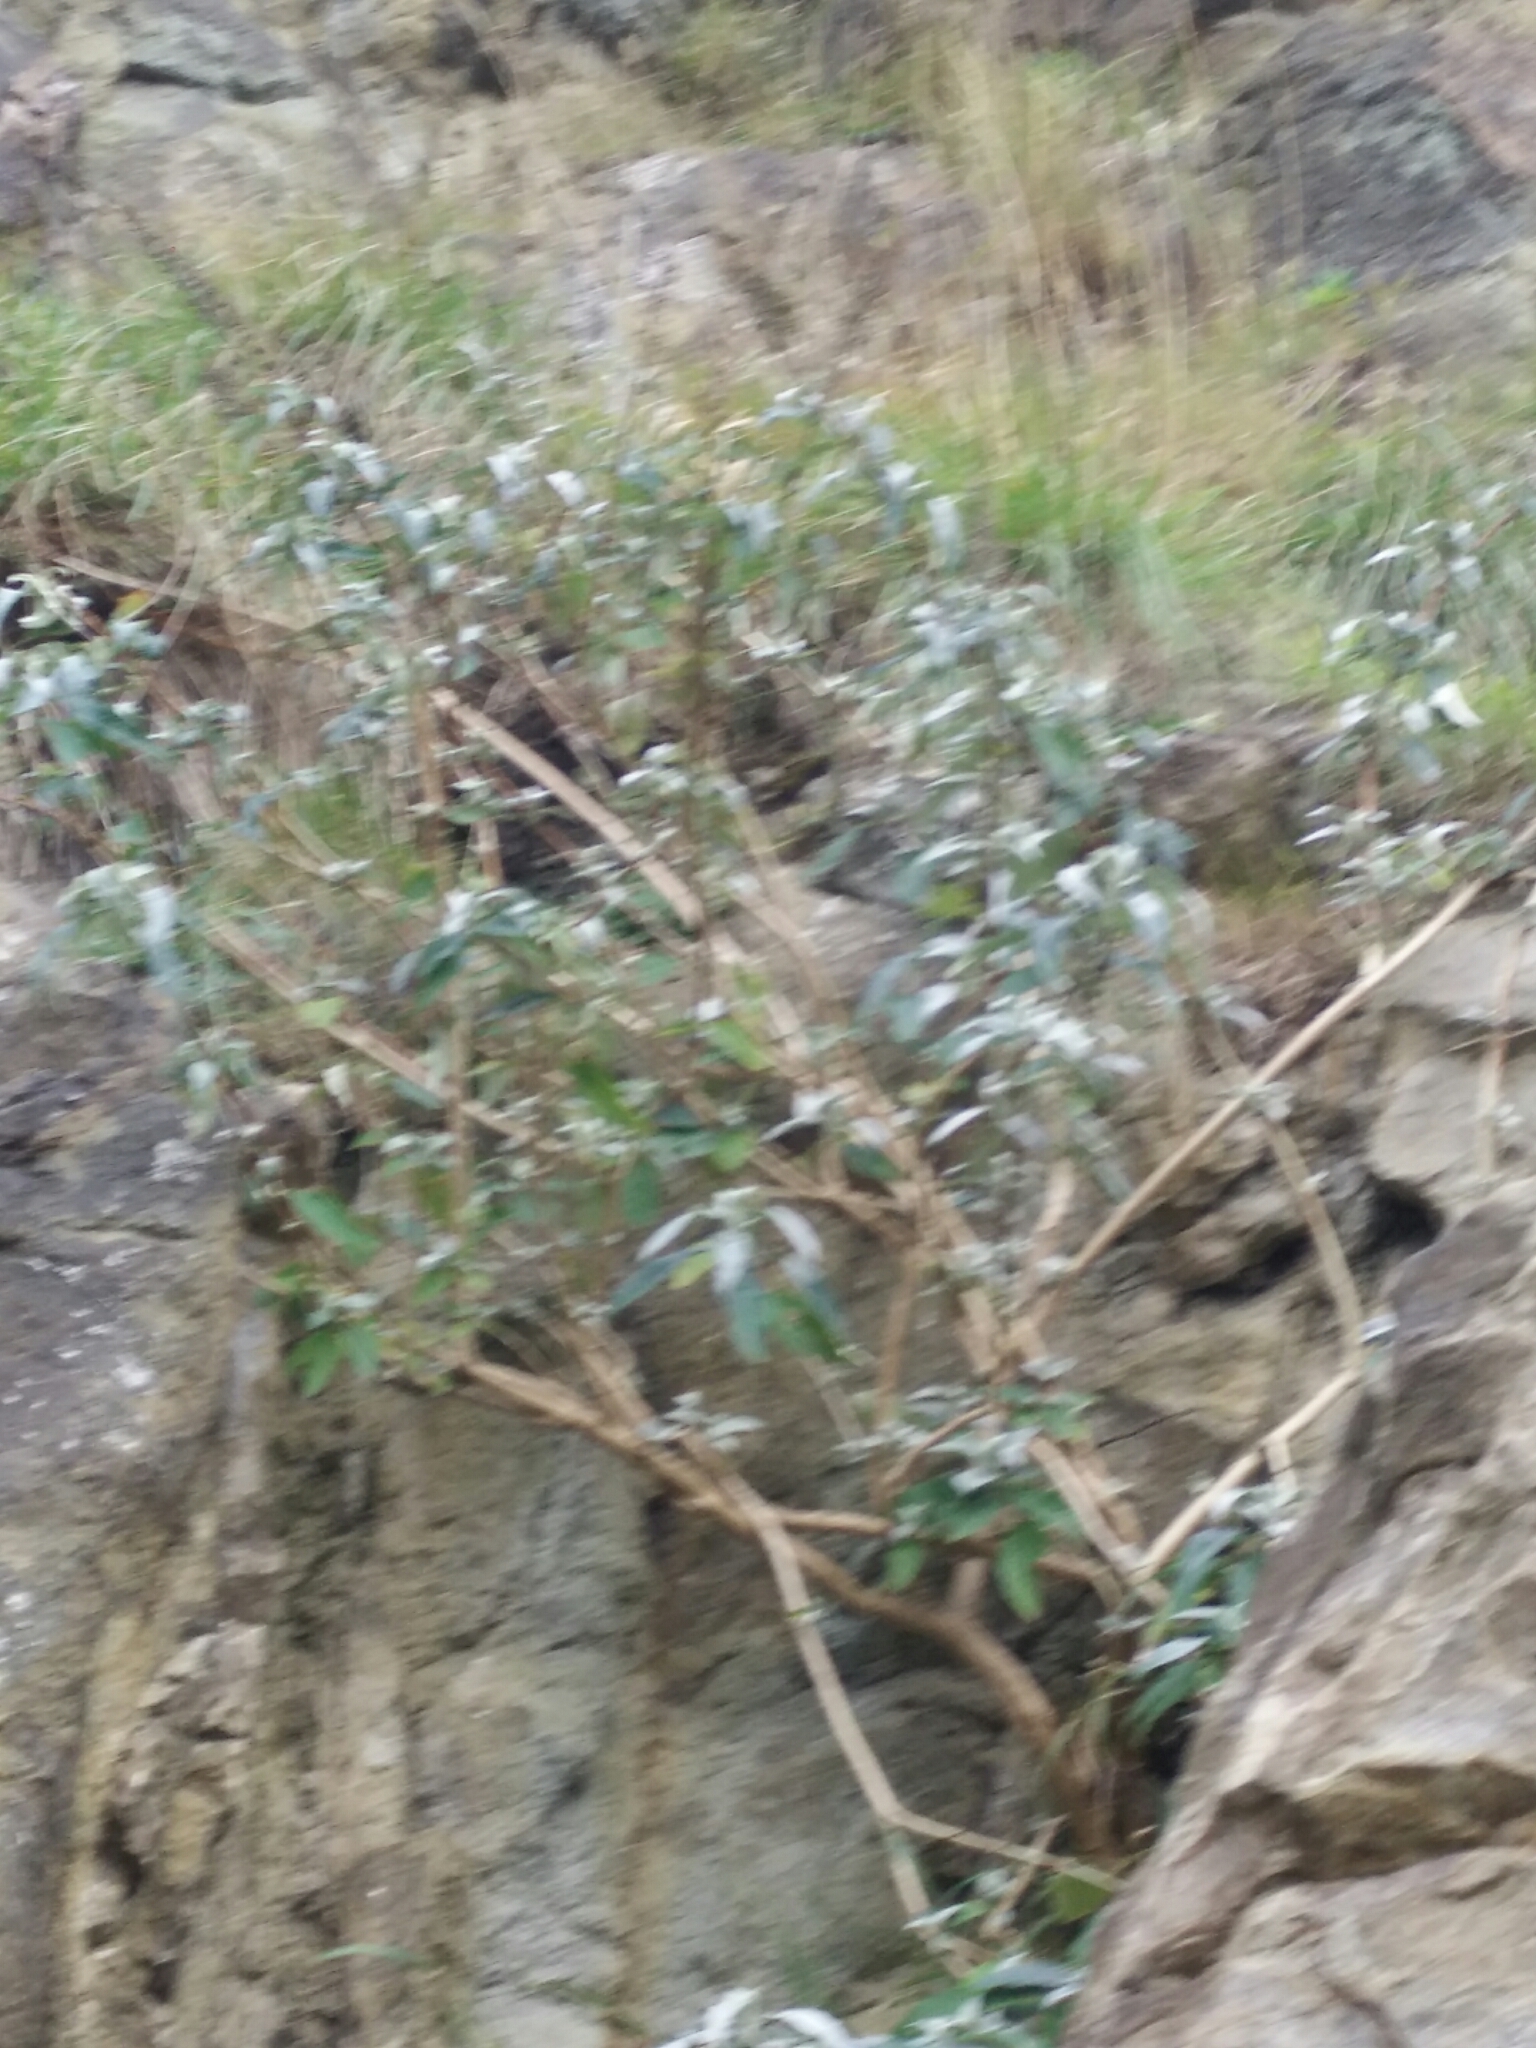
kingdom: Plantae
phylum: Tracheophyta
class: Magnoliopsida
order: Lamiales
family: Scrophulariaceae
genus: Buddleja
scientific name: Buddleja davidii
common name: Butterfly-bush
